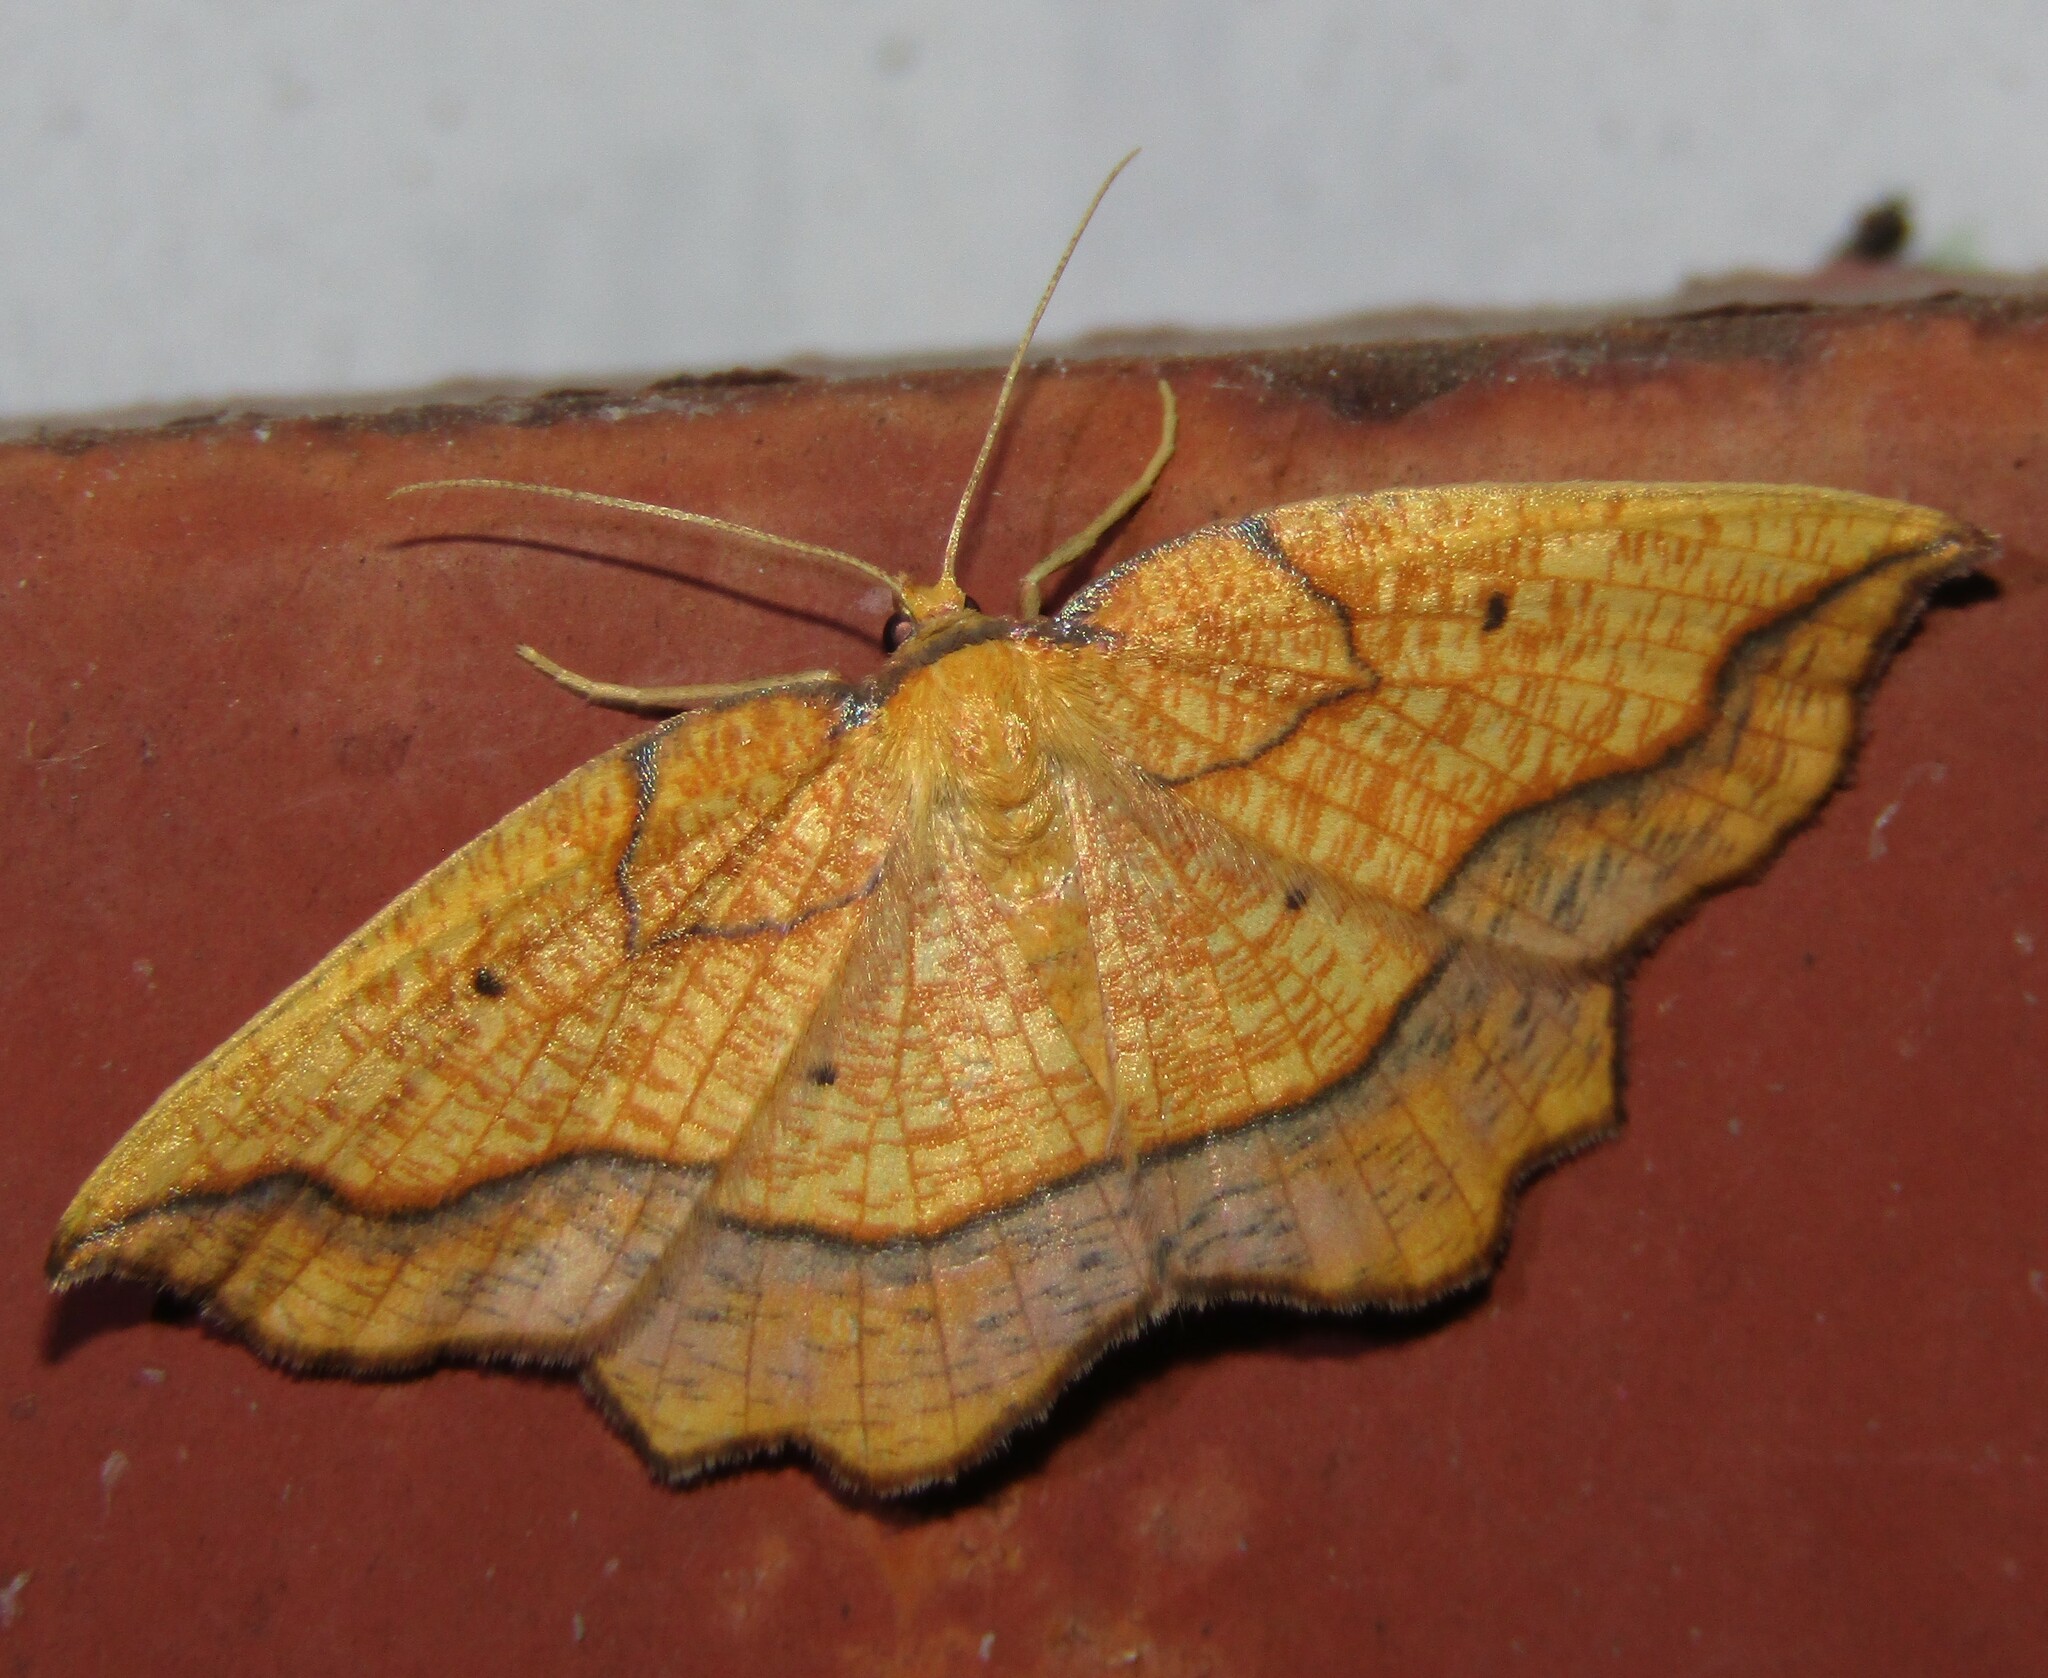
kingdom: Animalia
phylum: Arthropoda
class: Insecta
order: Lepidoptera
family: Geometridae
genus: Epione
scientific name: Epione repandaria
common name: Bordered beauty
